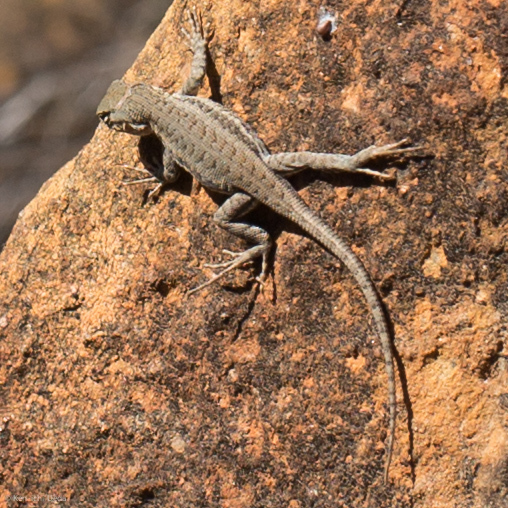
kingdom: Animalia
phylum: Chordata
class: Squamata
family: Phrynosomatidae
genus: Sceloporus
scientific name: Sceloporus graciosus
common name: Sagebrush lizard
